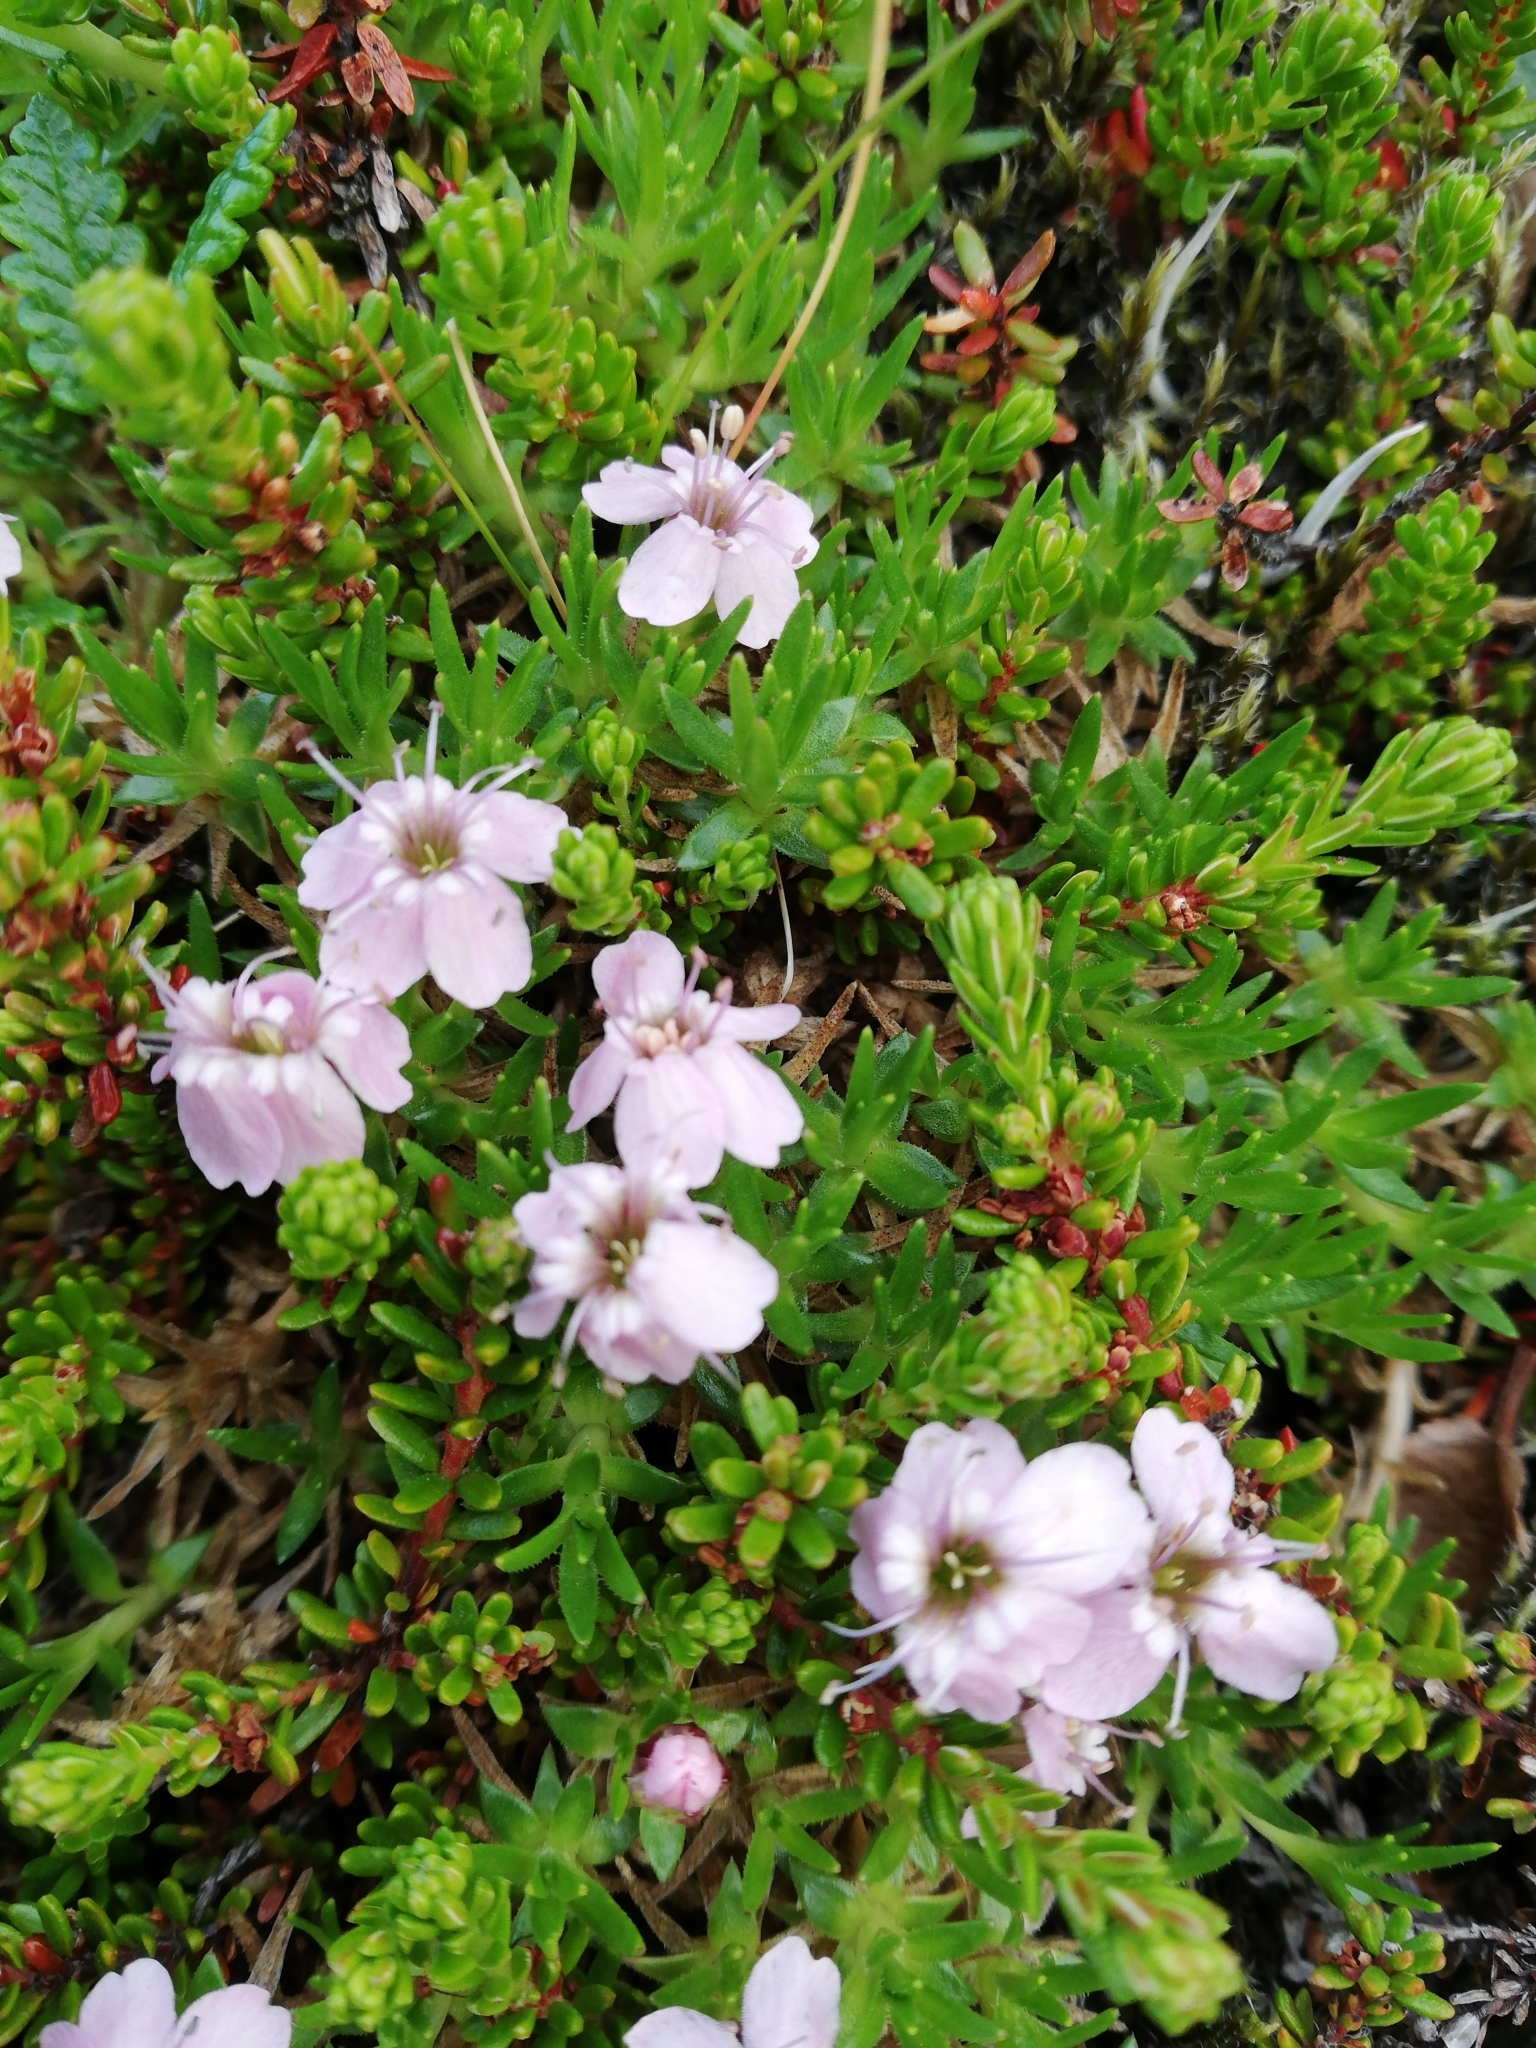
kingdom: Plantae
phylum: Tracheophyta
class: Magnoliopsida
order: Caryophyllales
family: Caryophyllaceae
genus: Silene
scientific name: Silene acaulis
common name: Moss campion
